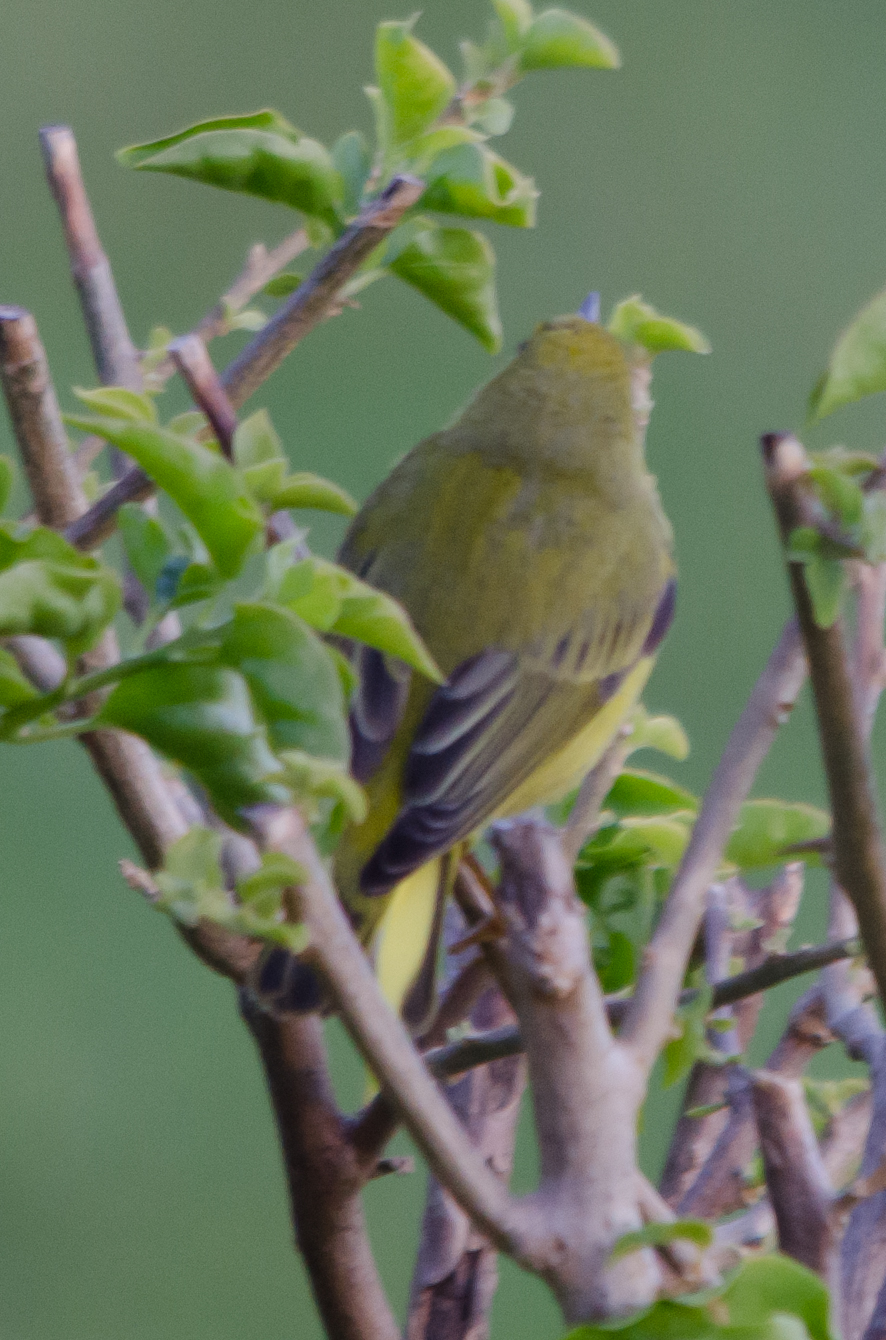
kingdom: Animalia
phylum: Chordata
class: Aves
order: Passeriformes
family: Parulidae
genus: Setophaga
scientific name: Setophaga petechia
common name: Yellow warbler
